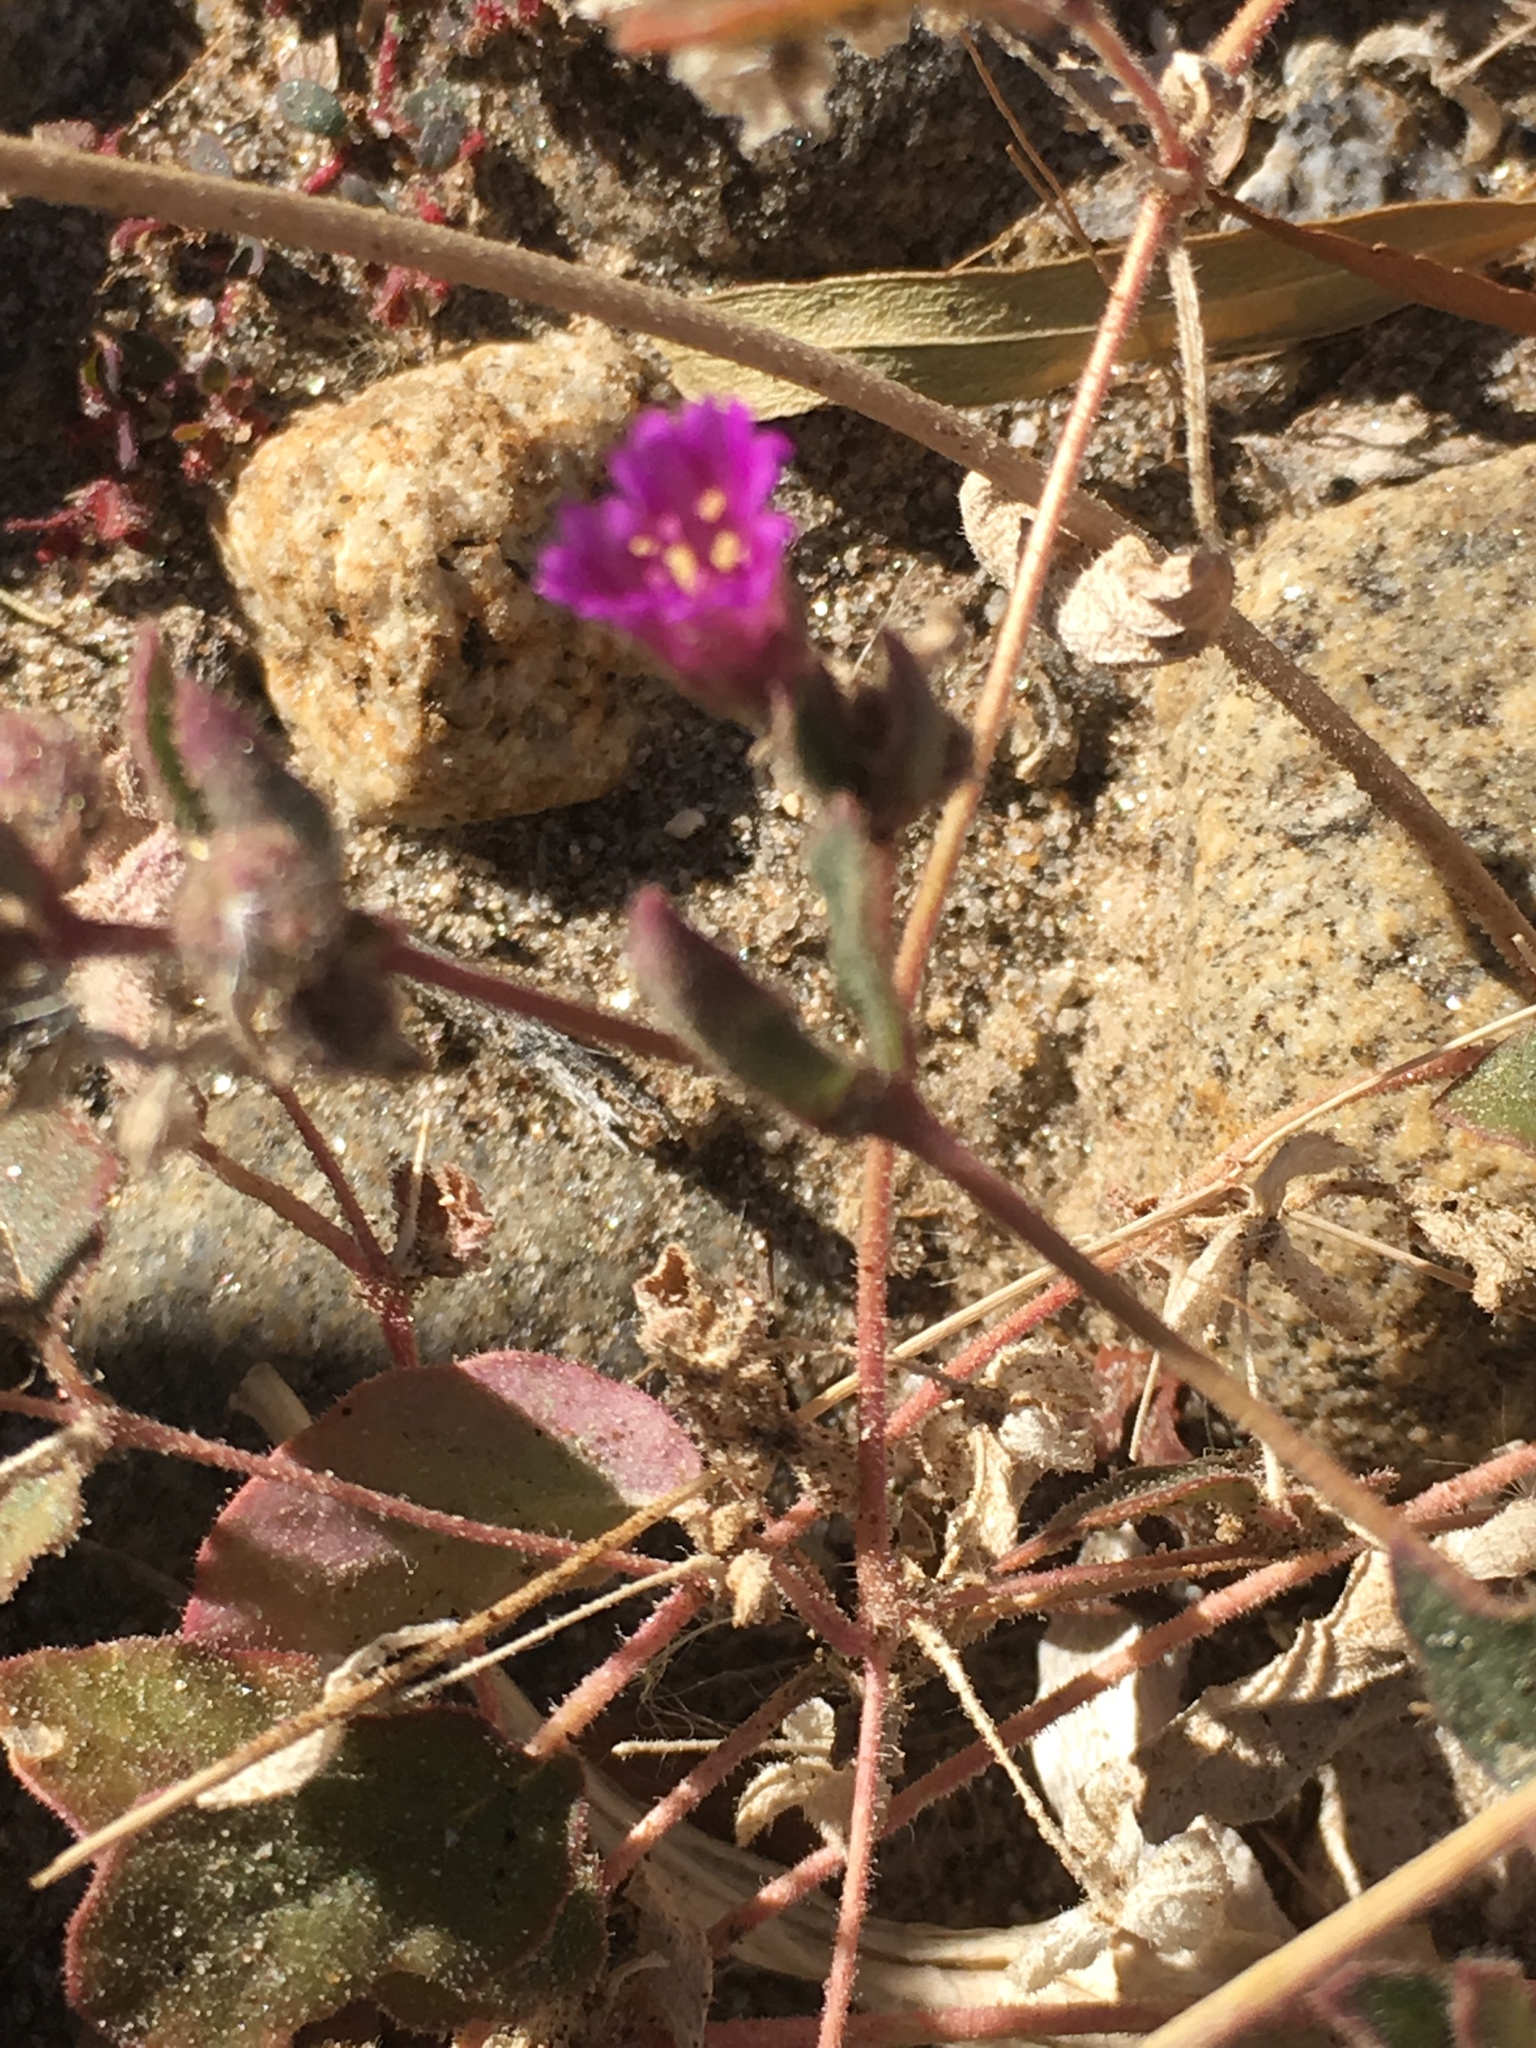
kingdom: Plantae
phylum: Tracheophyta
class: Magnoliopsida
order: Caryophyllales
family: Nyctaginaceae
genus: Allionia
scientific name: Allionia incarnata
